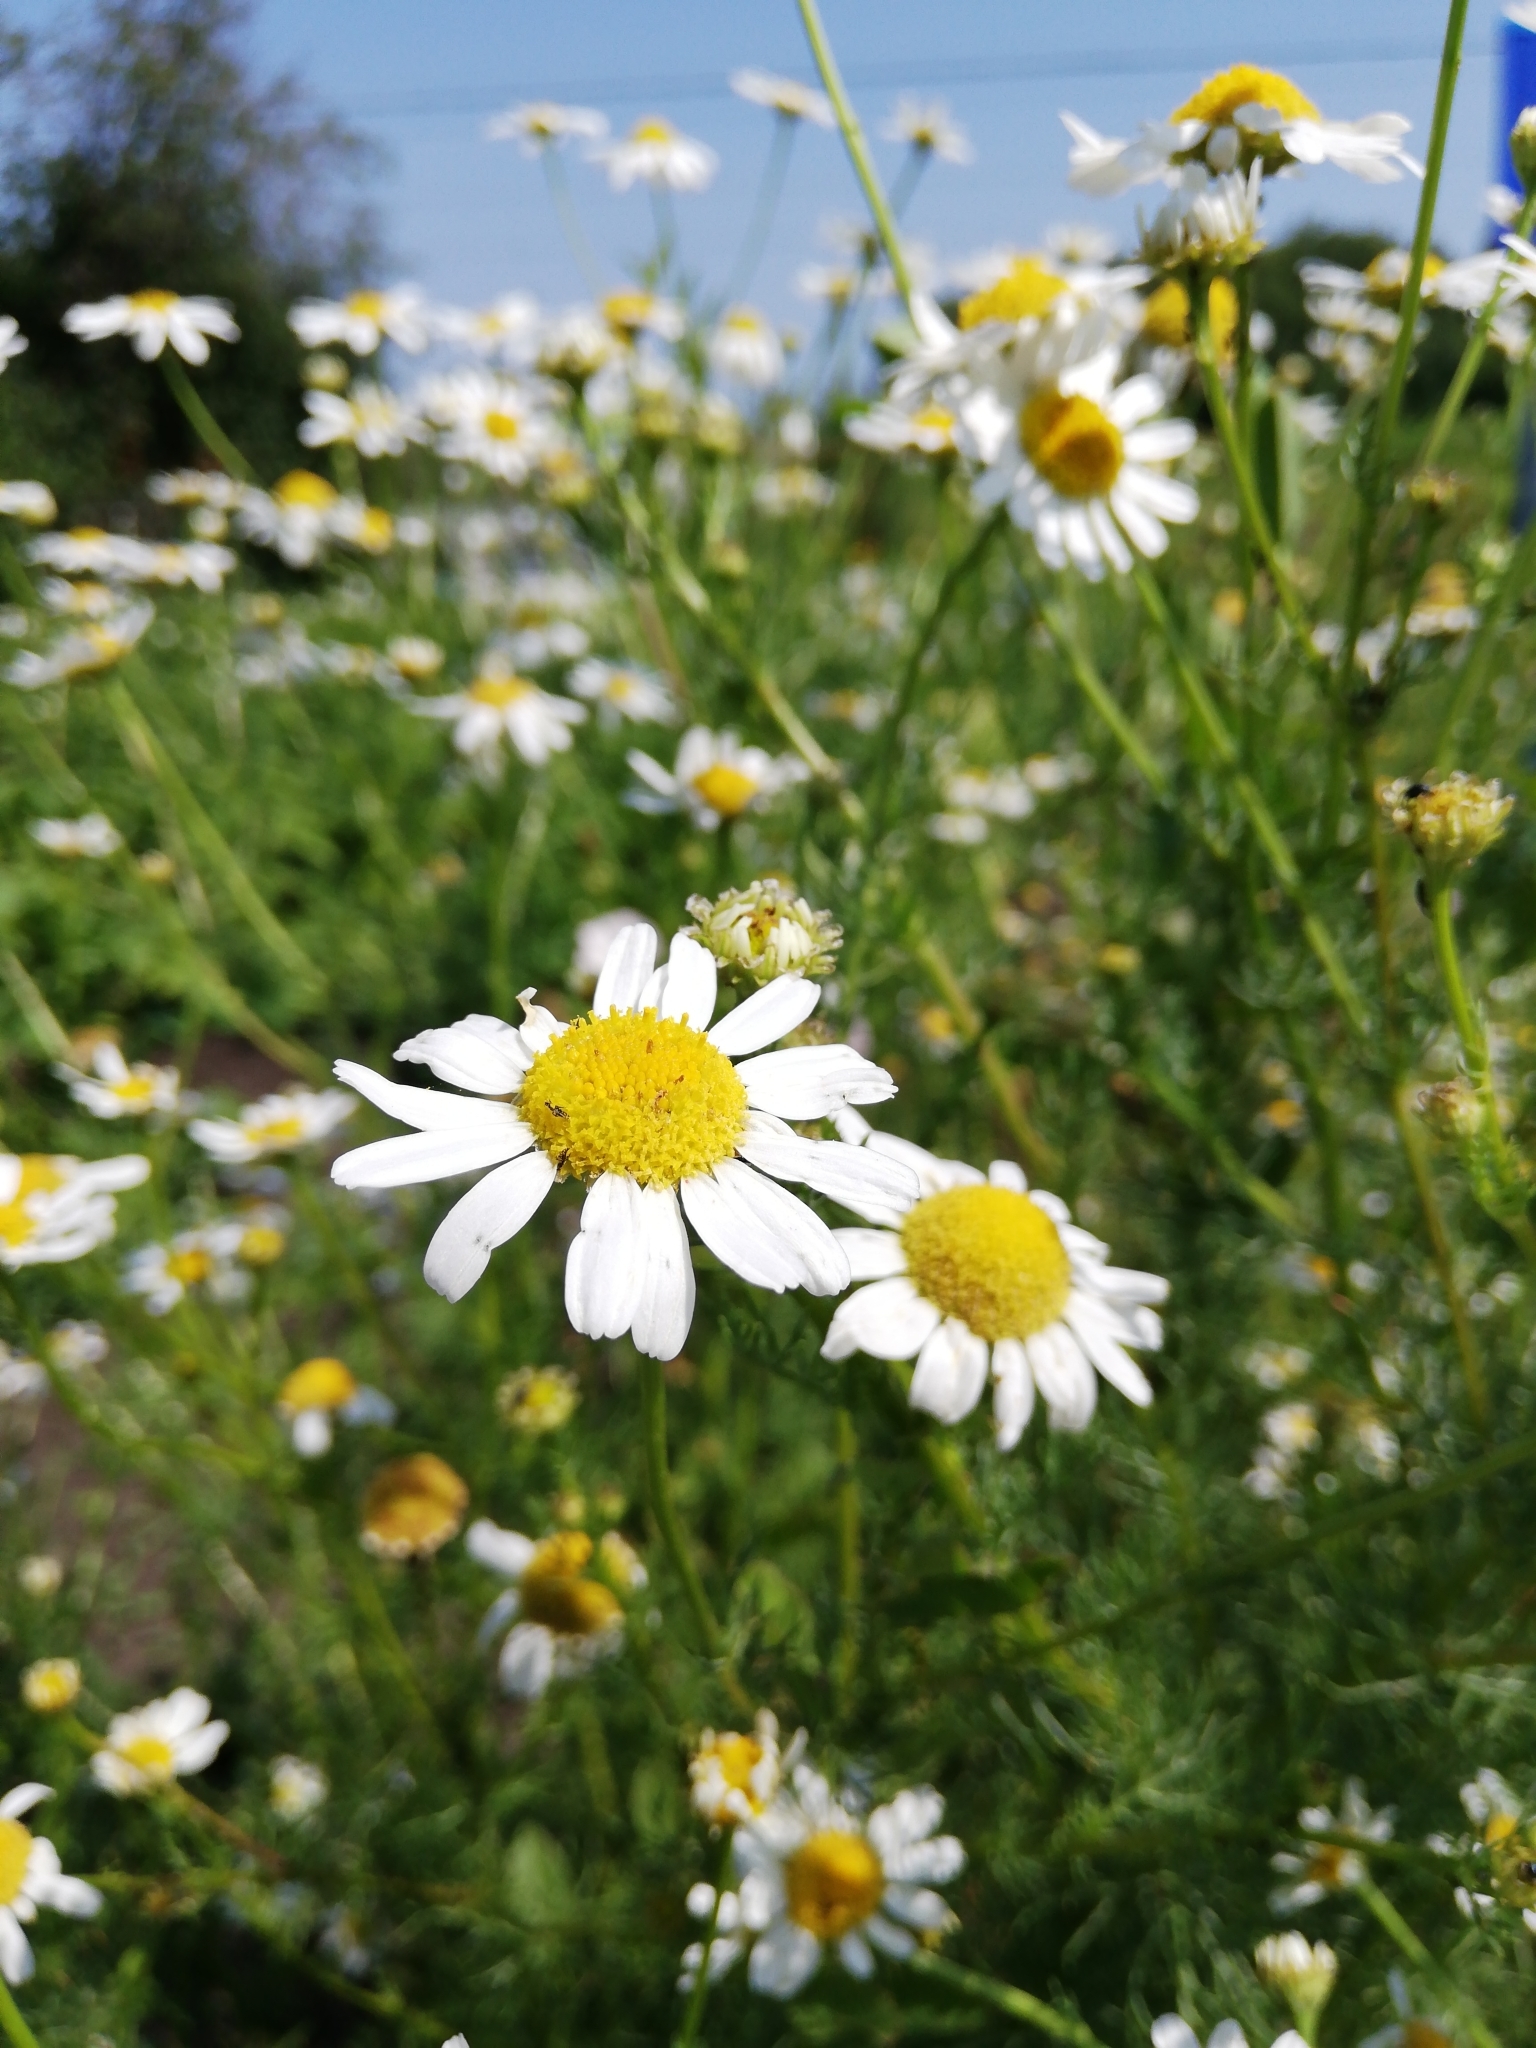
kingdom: Plantae
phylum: Tracheophyta
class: Magnoliopsida
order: Asterales
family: Asteraceae
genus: Tripleurospermum
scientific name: Tripleurospermum inodorum
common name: Scentless mayweed
